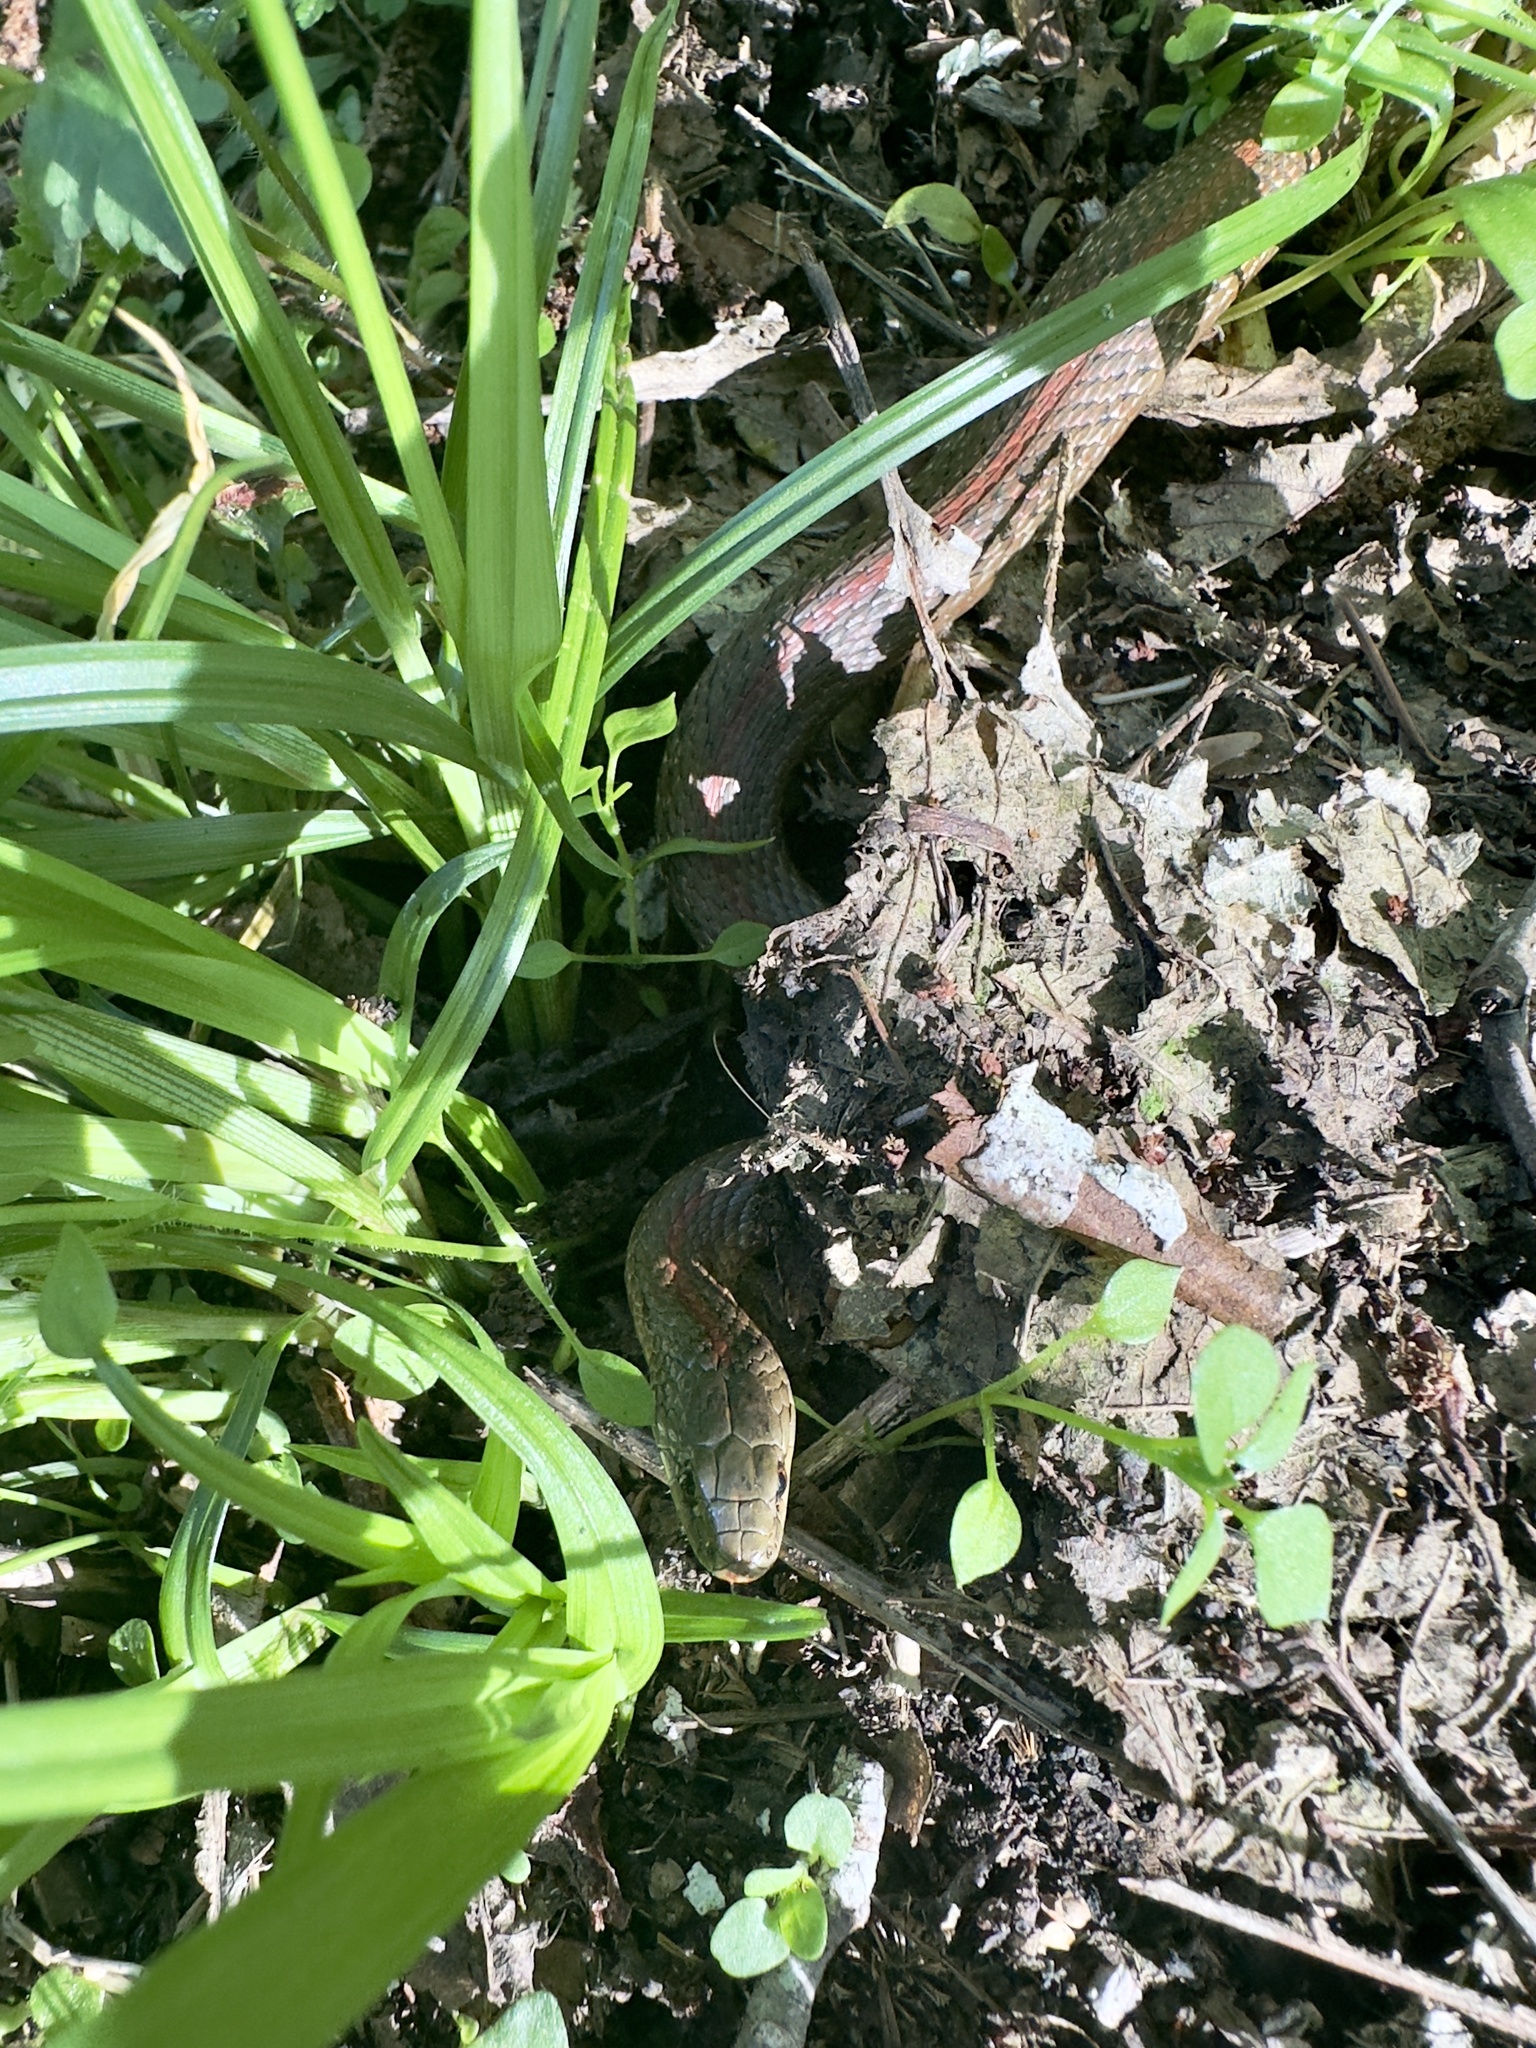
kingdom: Animalia
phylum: Chordata
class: Squamata
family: Colubridae
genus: Thamnophis
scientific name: Thamnophis ordinoides
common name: Northwestern garter snake
